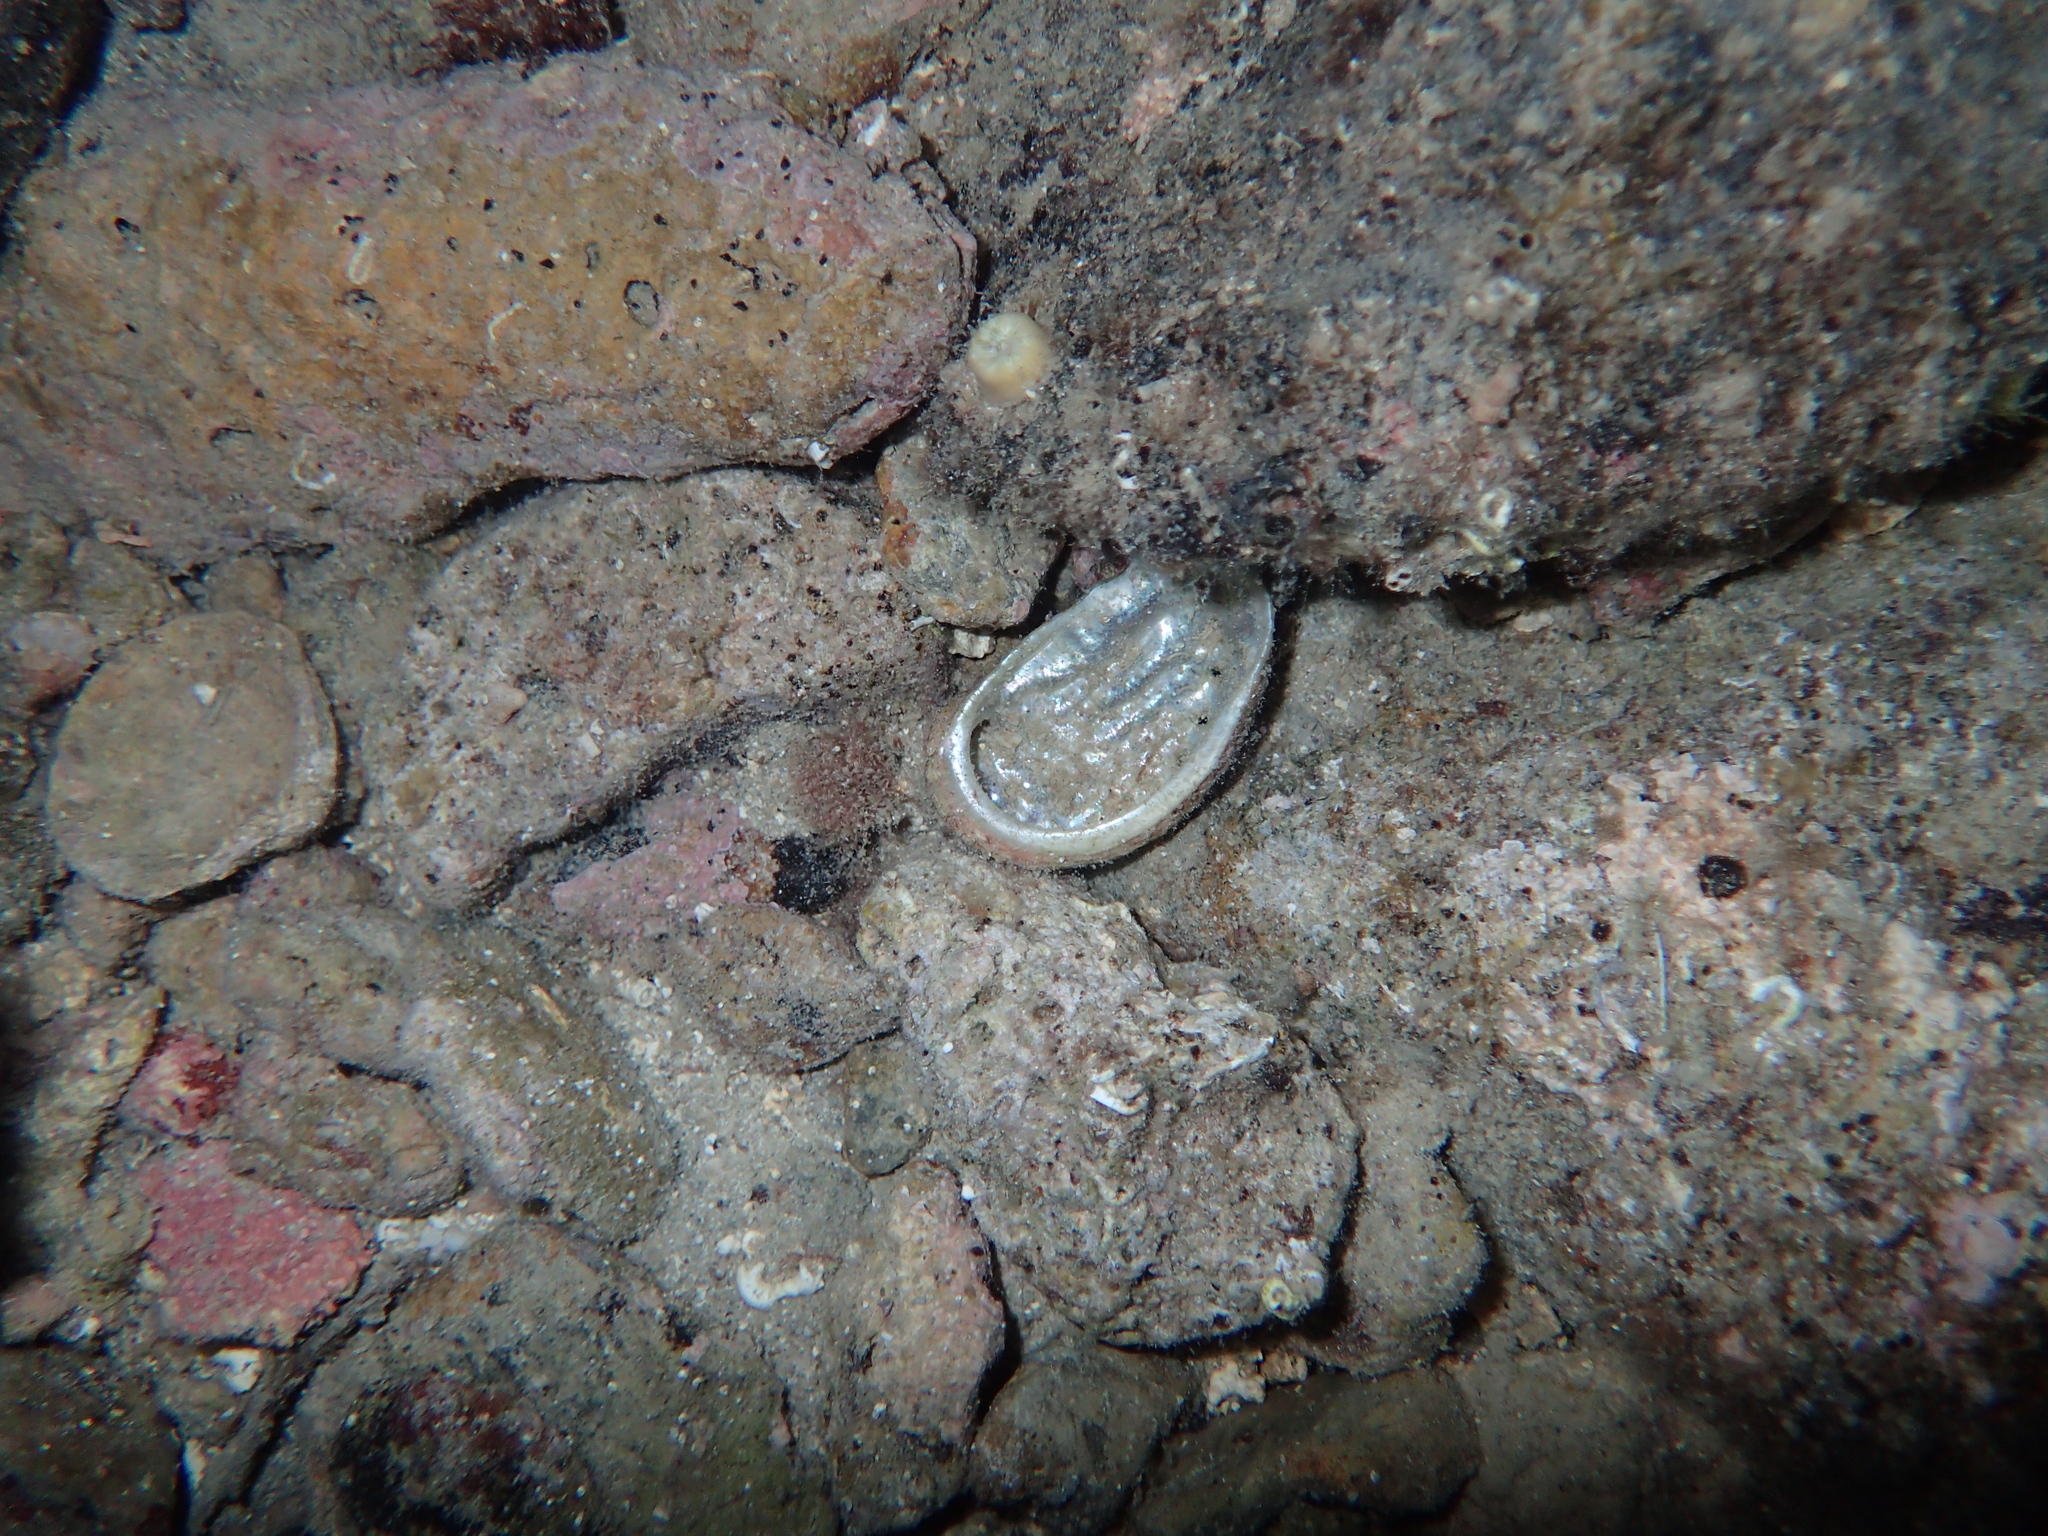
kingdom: Animalia
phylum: Mollusca
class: Gastropoda
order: Lepetellida
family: Haliotidae
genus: Haliotis
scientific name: Haliotis tuberculata
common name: Green ormer
